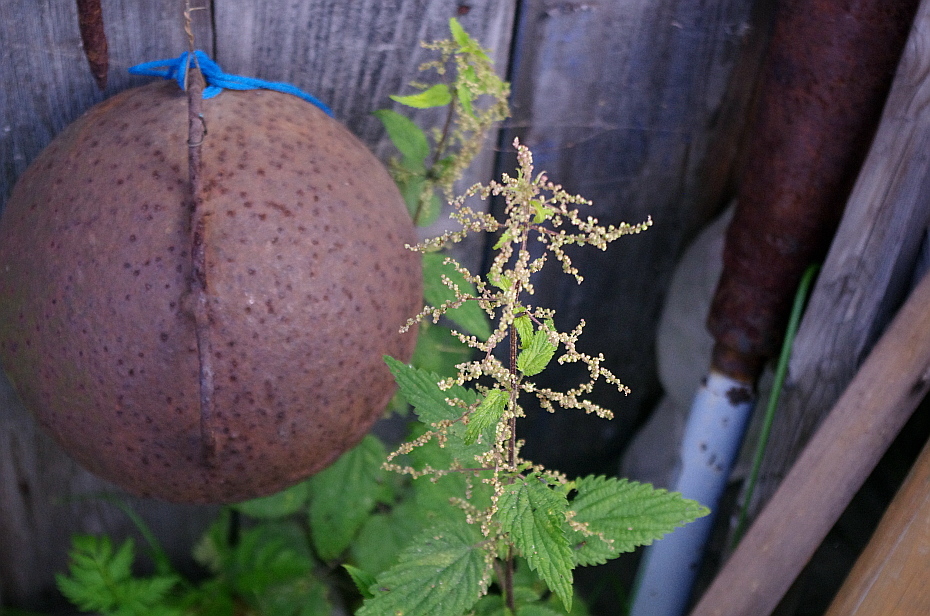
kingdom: Plantae
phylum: Tracheophyta
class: Magnoliopsida
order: Rosales
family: Urticaceae
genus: Urtica
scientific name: Urtica dioica
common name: Common nettle
